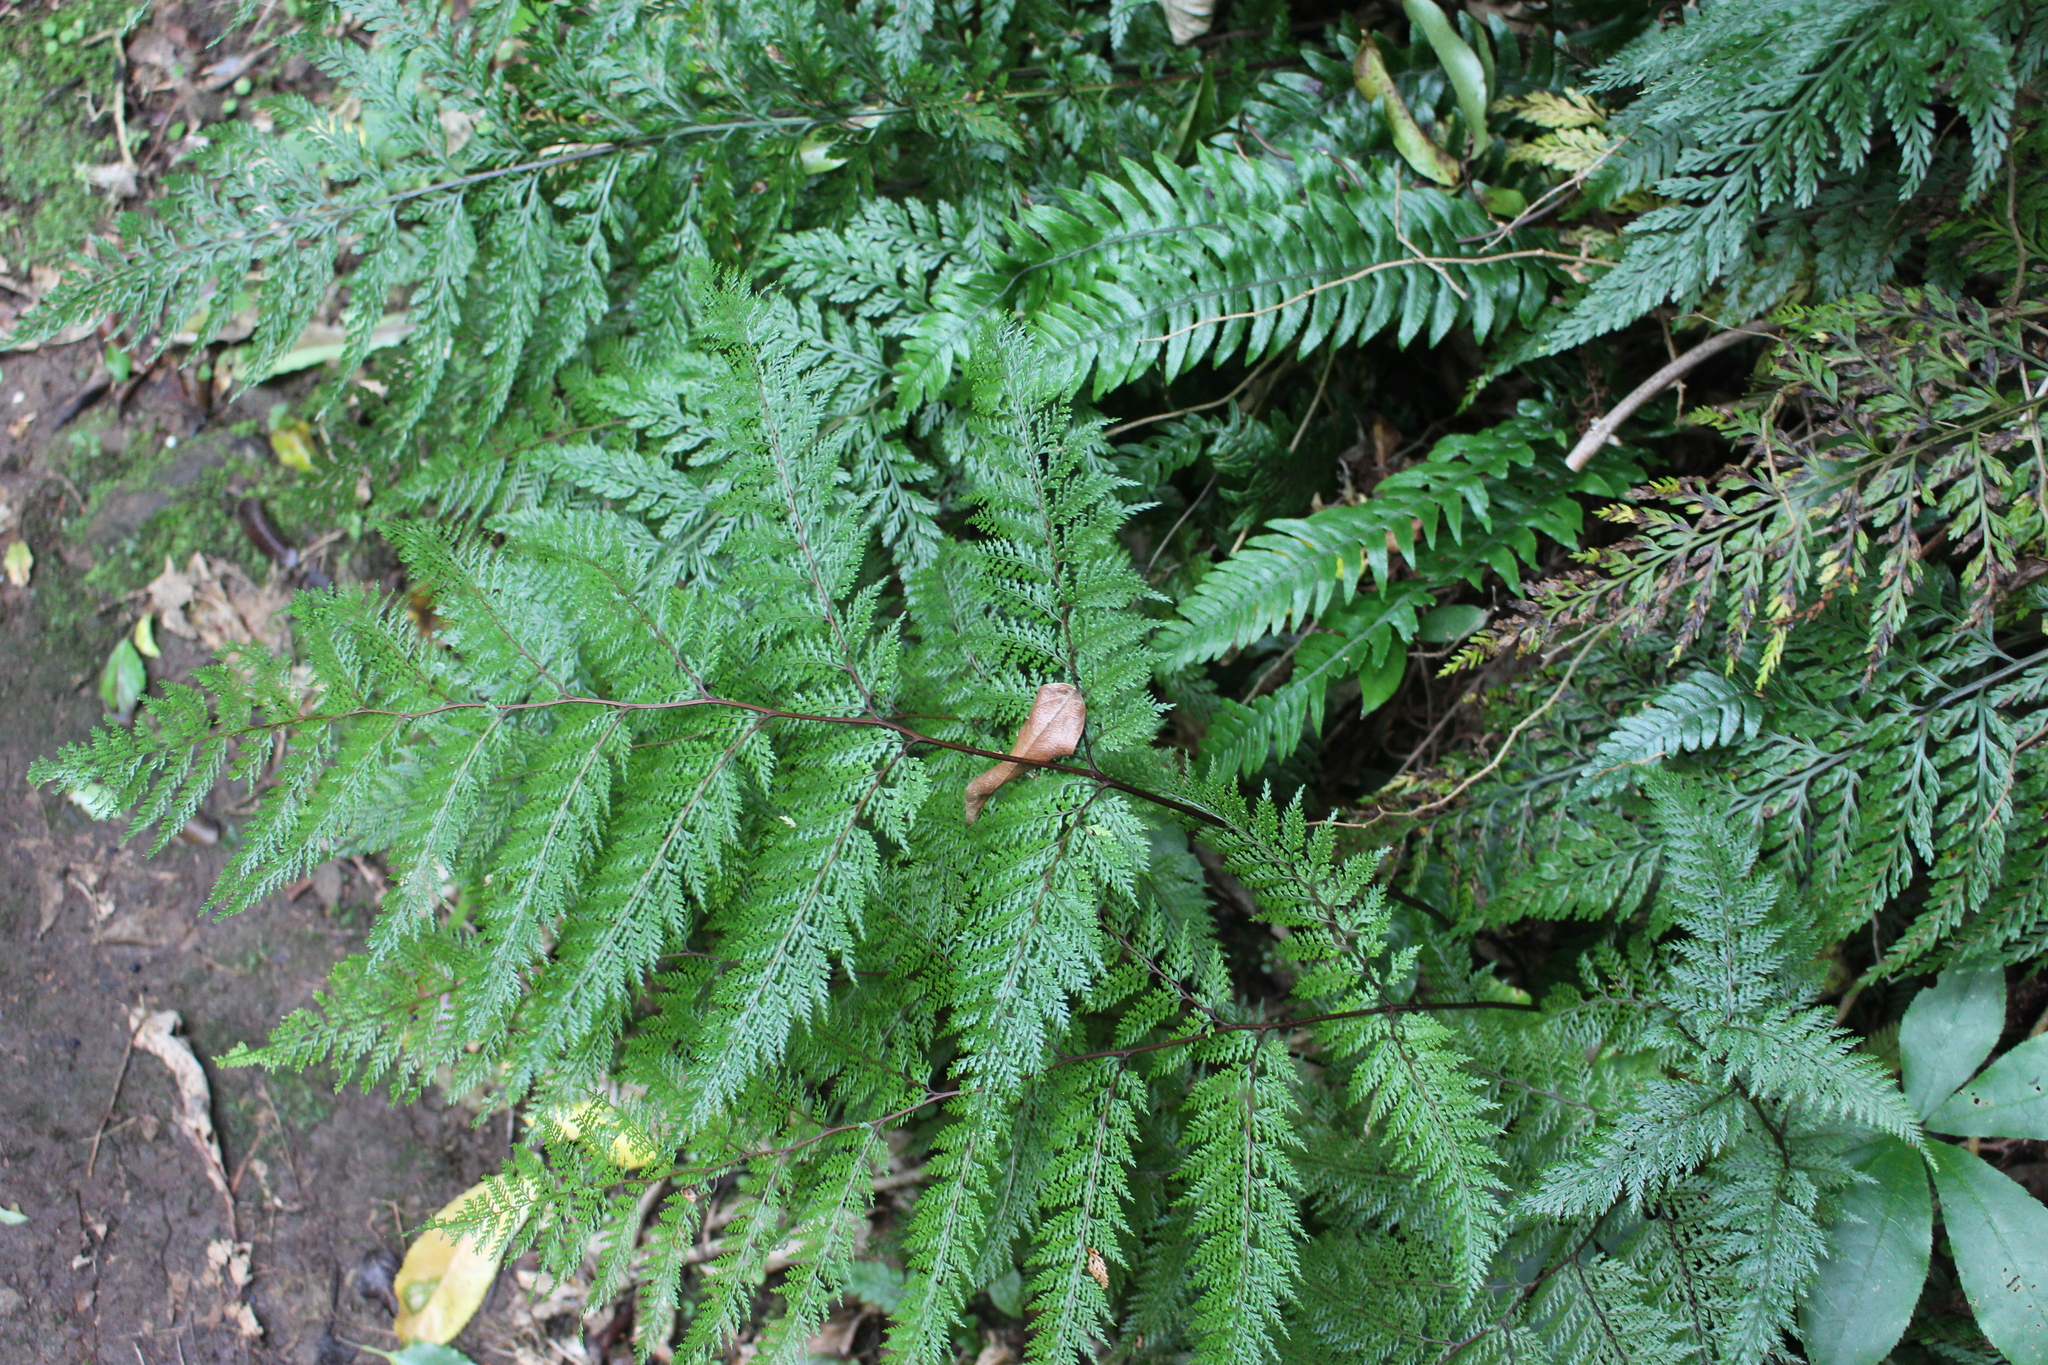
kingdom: Plantae
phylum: Tracheophyta
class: Polypodiopsida
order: Polypodiales
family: Dennstaedtiaceae
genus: Dennstaedtia
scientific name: Dennstaedtia novae-zelandiae
